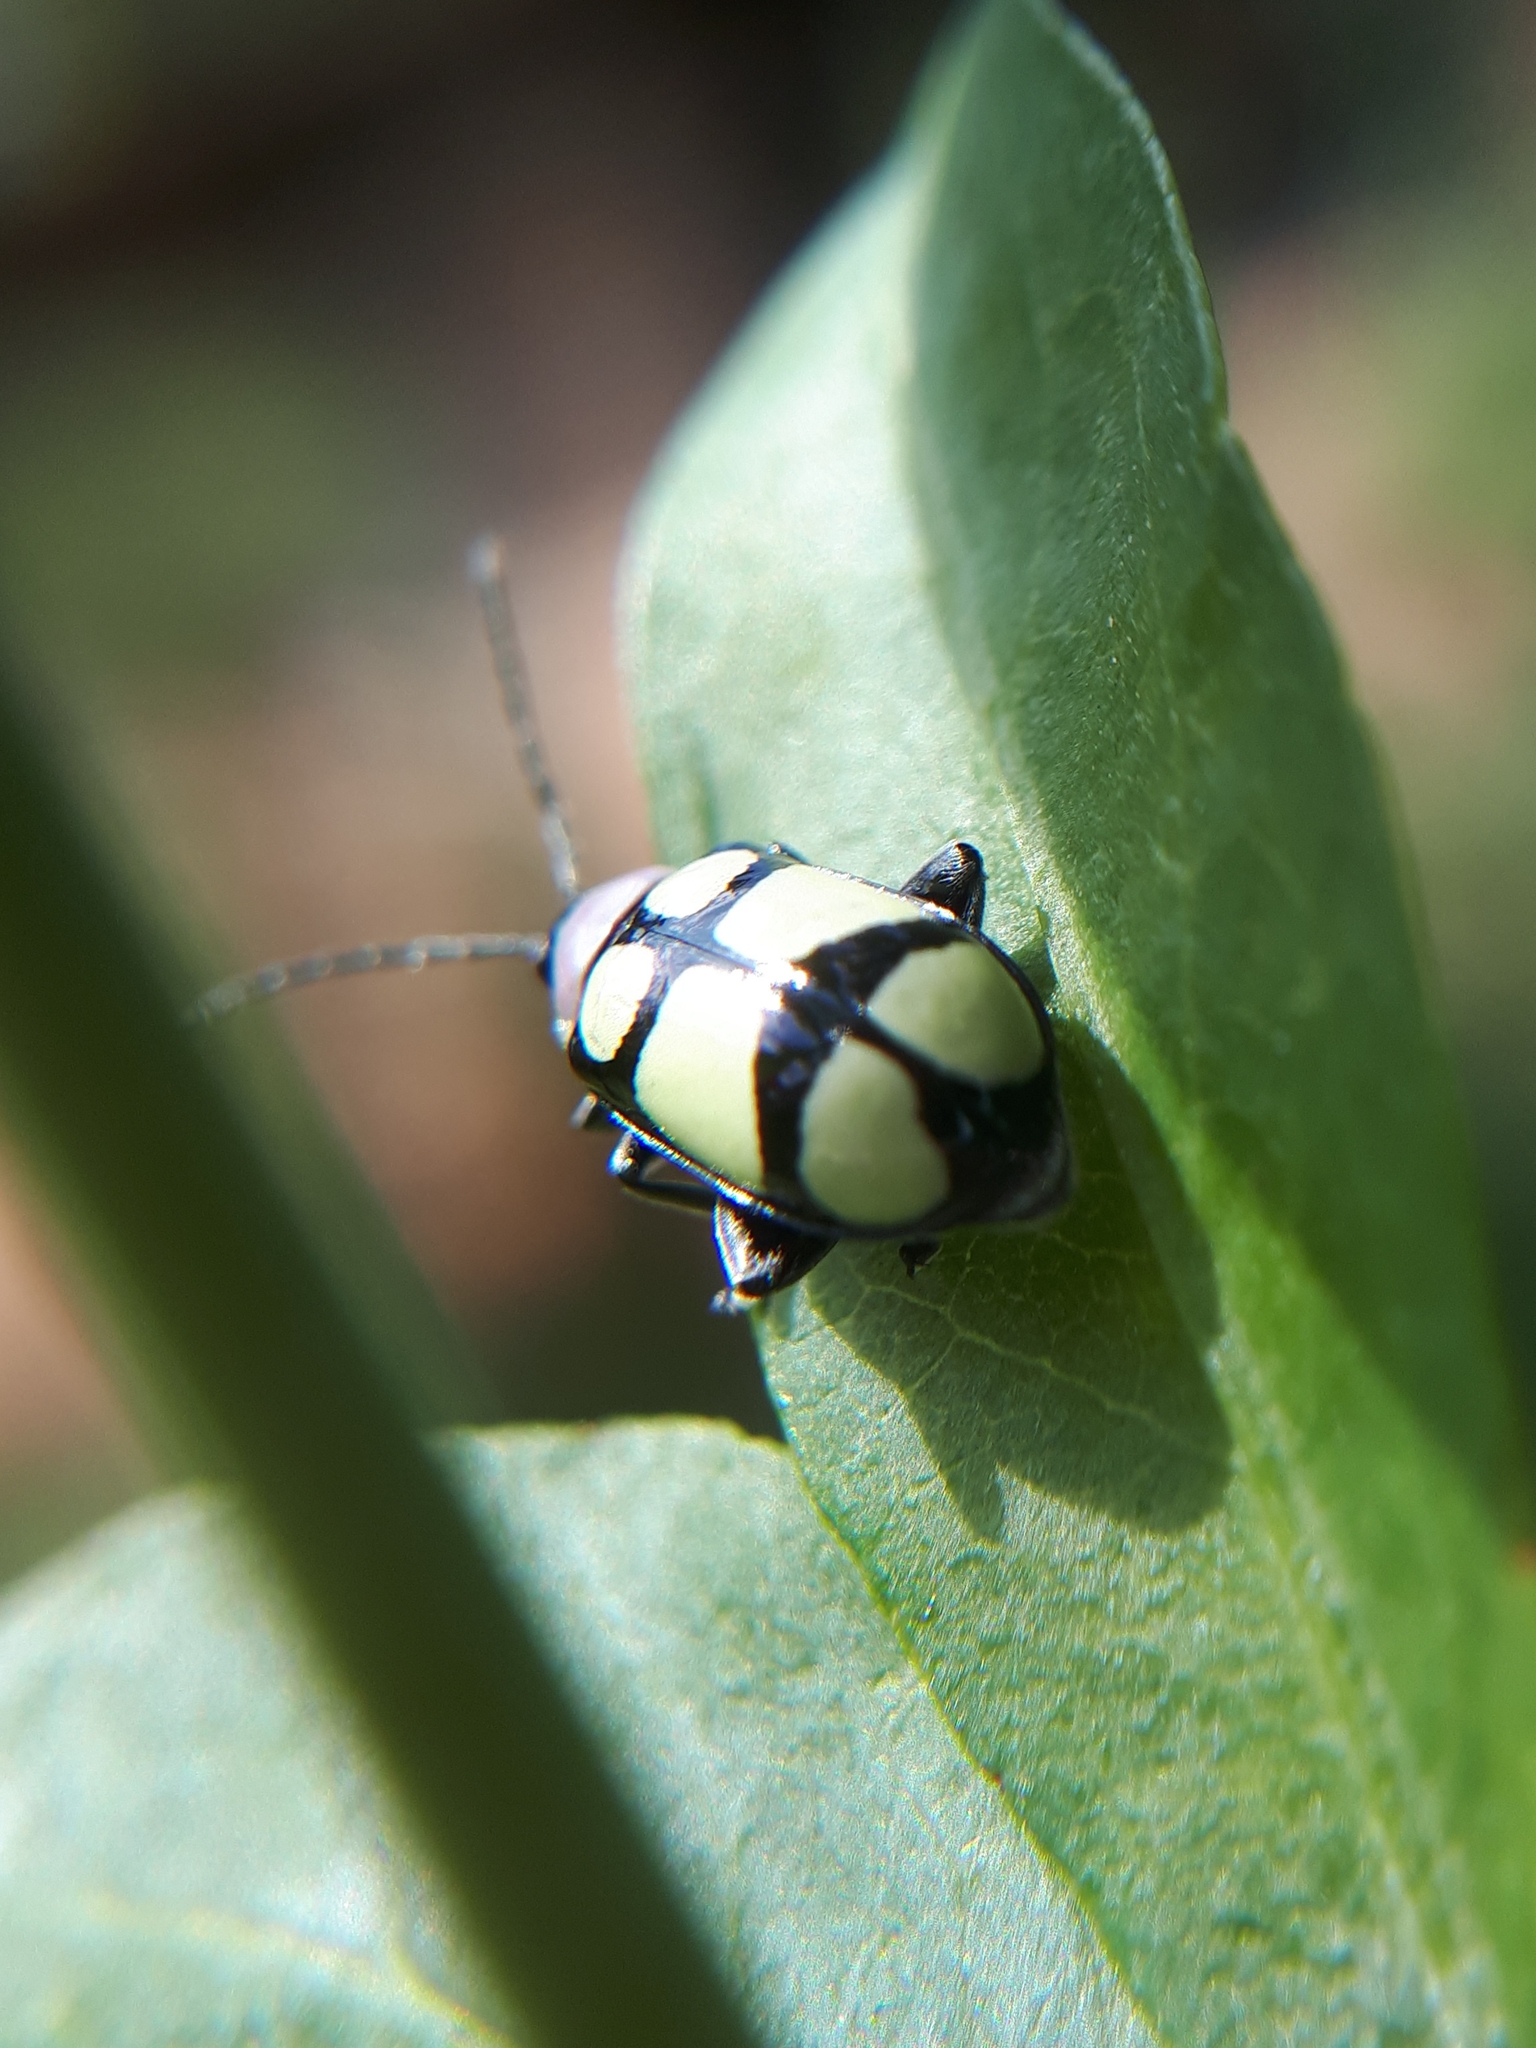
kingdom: Animalia
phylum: Arthropoda
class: Insecta
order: Coleoptera
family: Chrysomelidae
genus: Omophoita
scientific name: Omophoita
